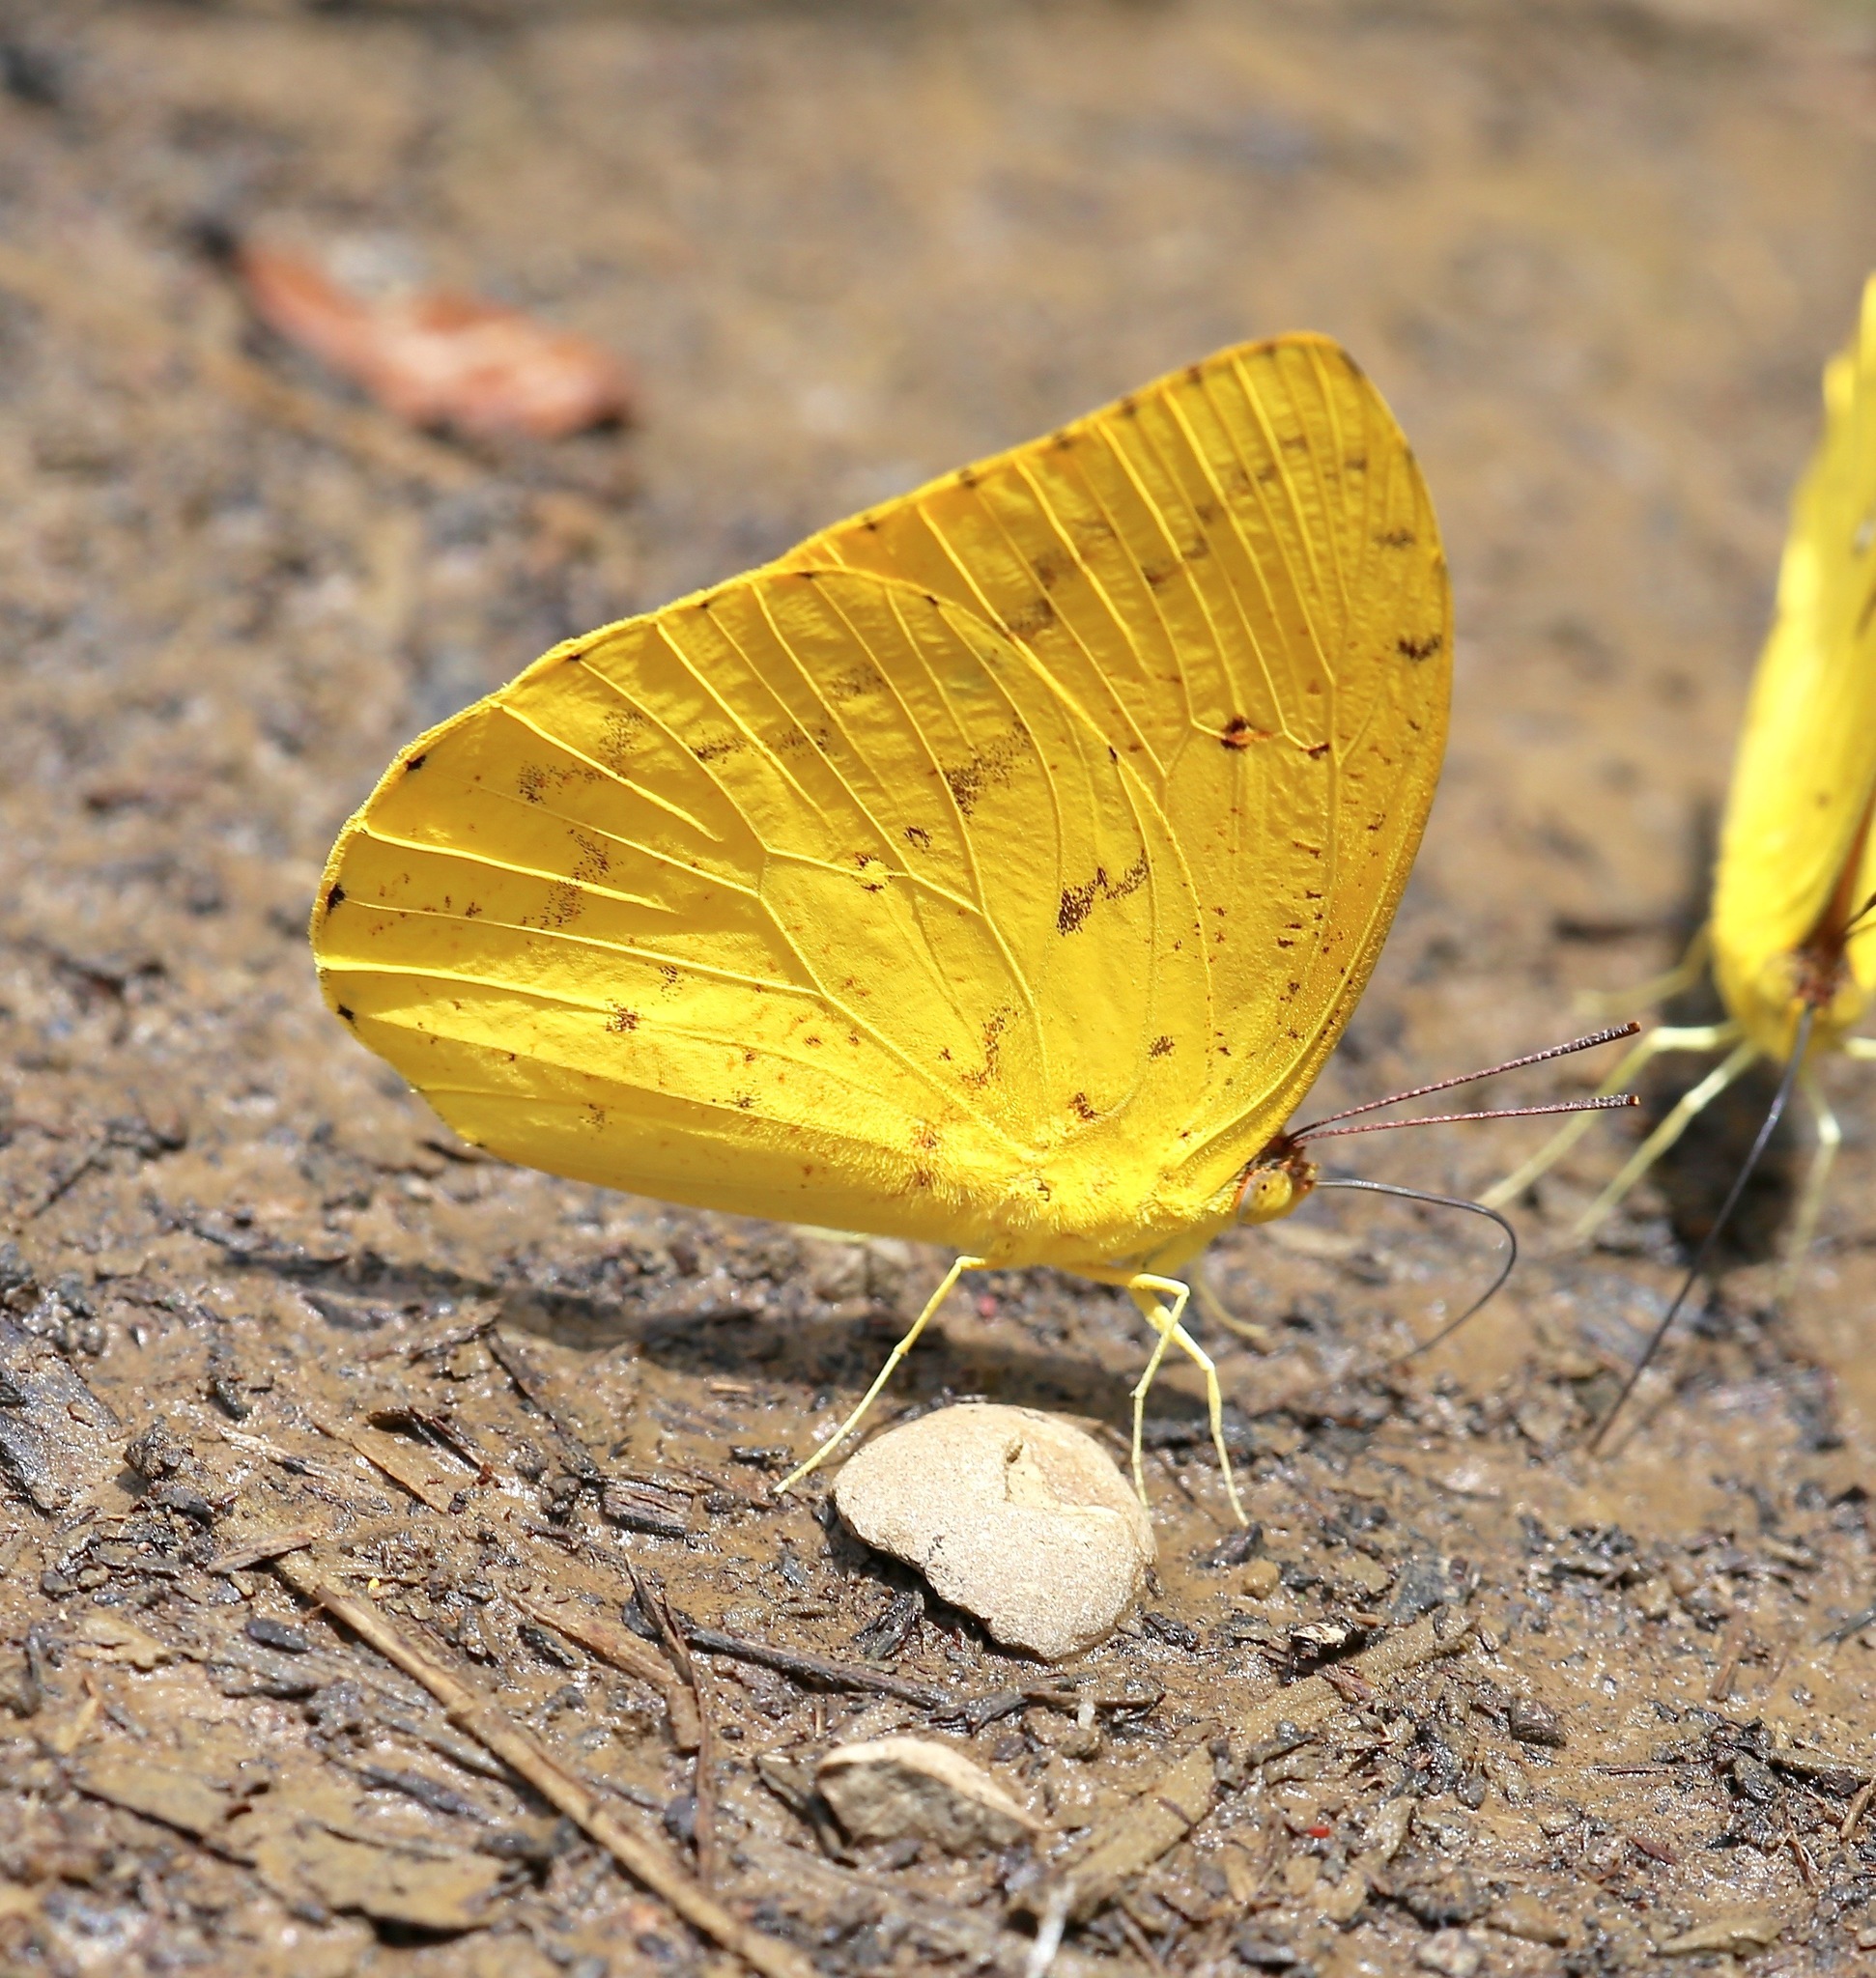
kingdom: Animalia
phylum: Arthropoda
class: Insecta
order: Lepidoptera
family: Pieridae
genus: Phoebis
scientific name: Phoebis argante
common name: Apricot sulphur
